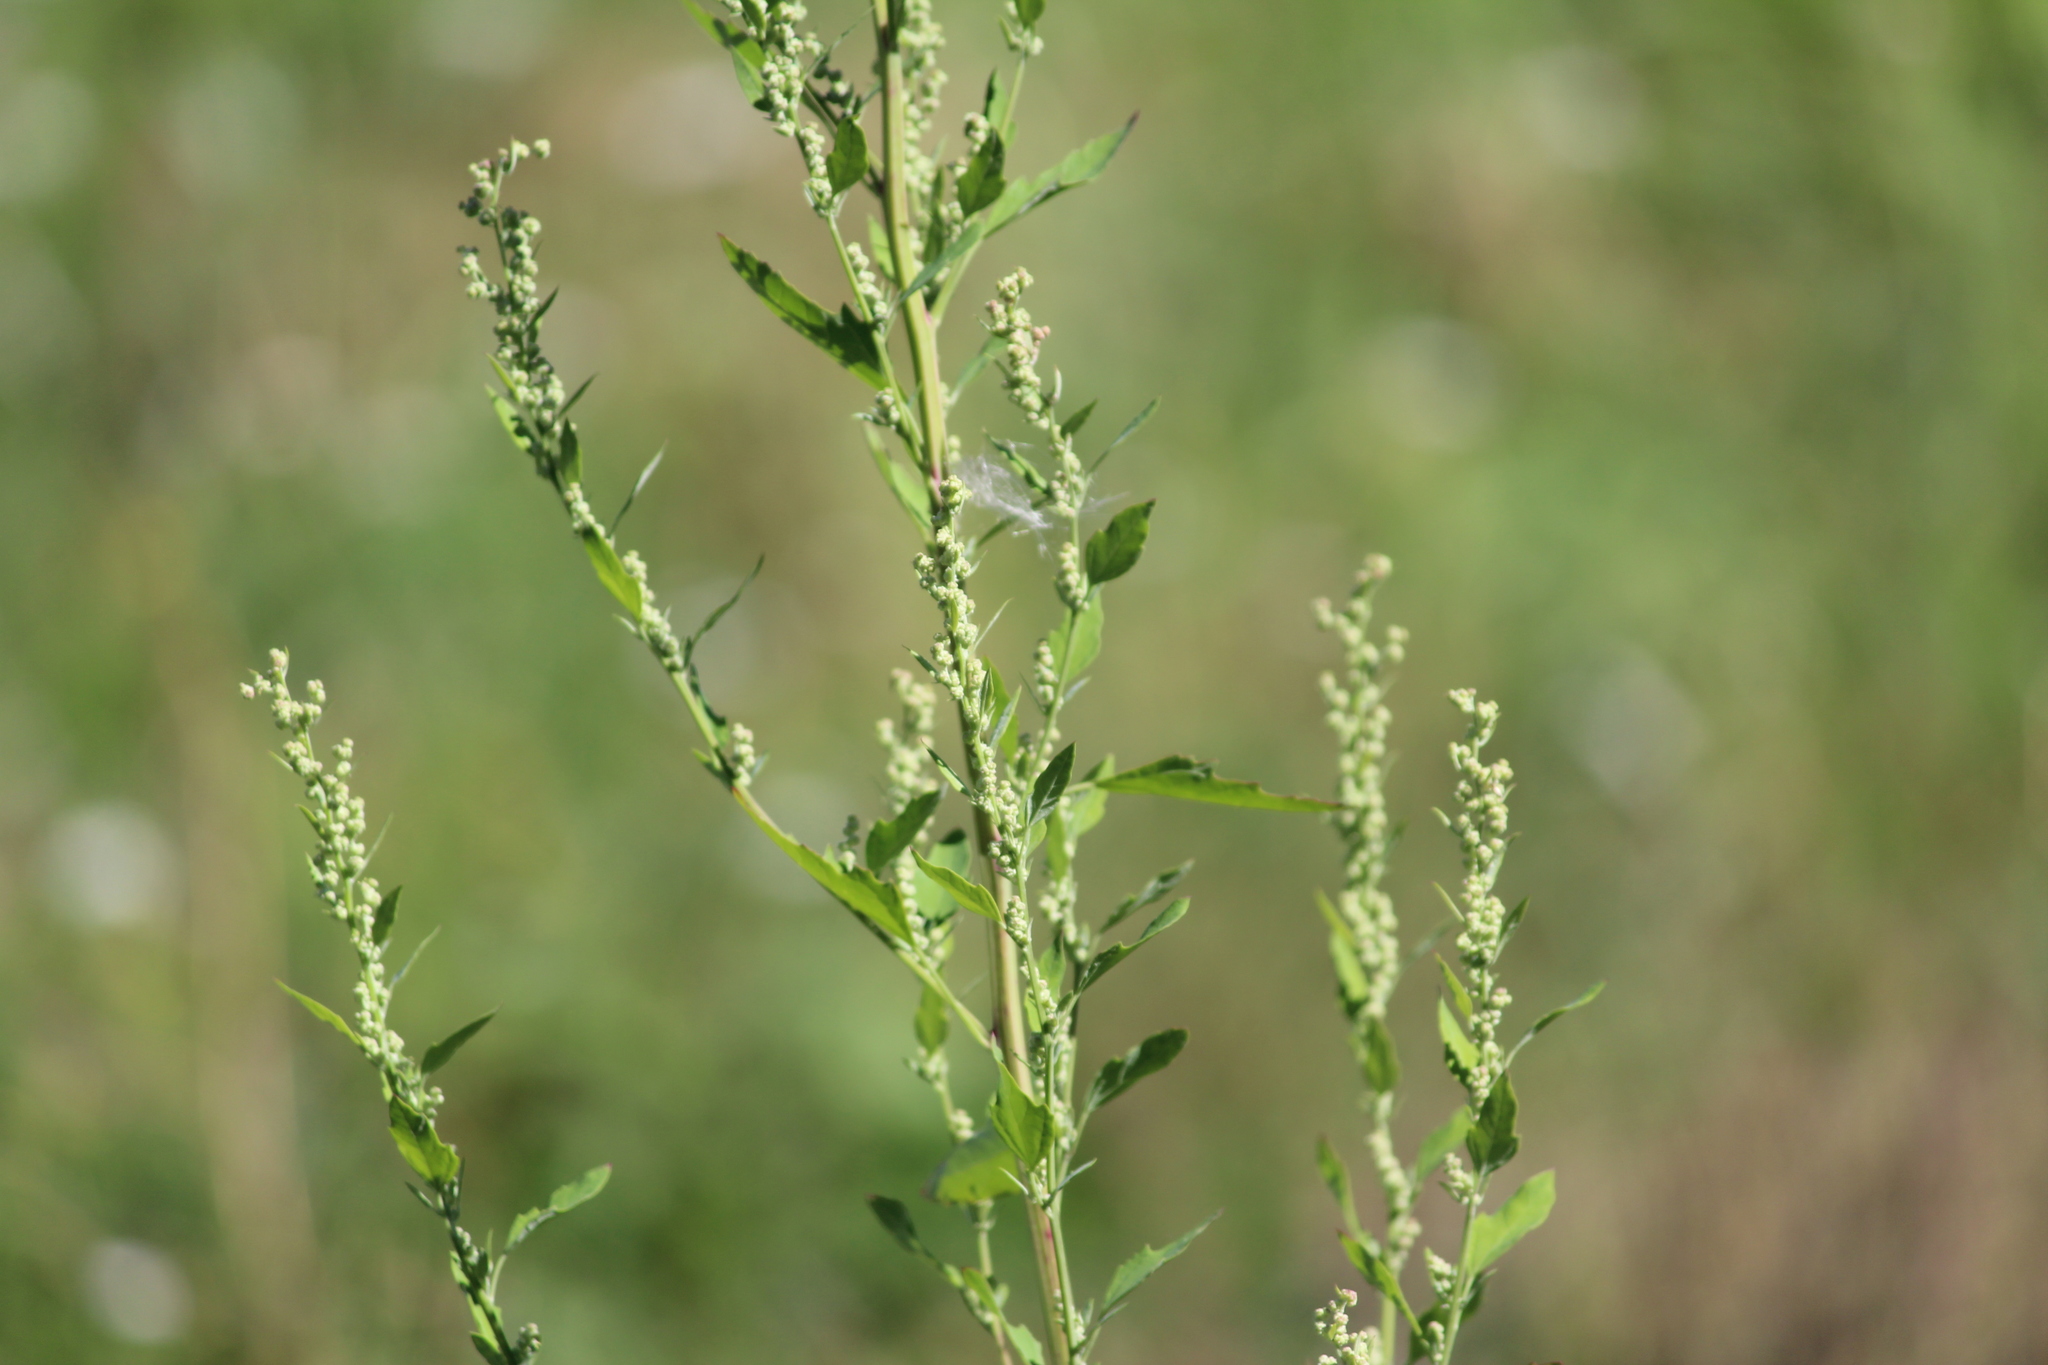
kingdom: Plantae
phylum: Tracheophyta
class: Magnoliopsida
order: Caryophyllales
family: Amaranthaceae
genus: Chenopodium
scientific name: Chenopodium album
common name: Fat-hen
